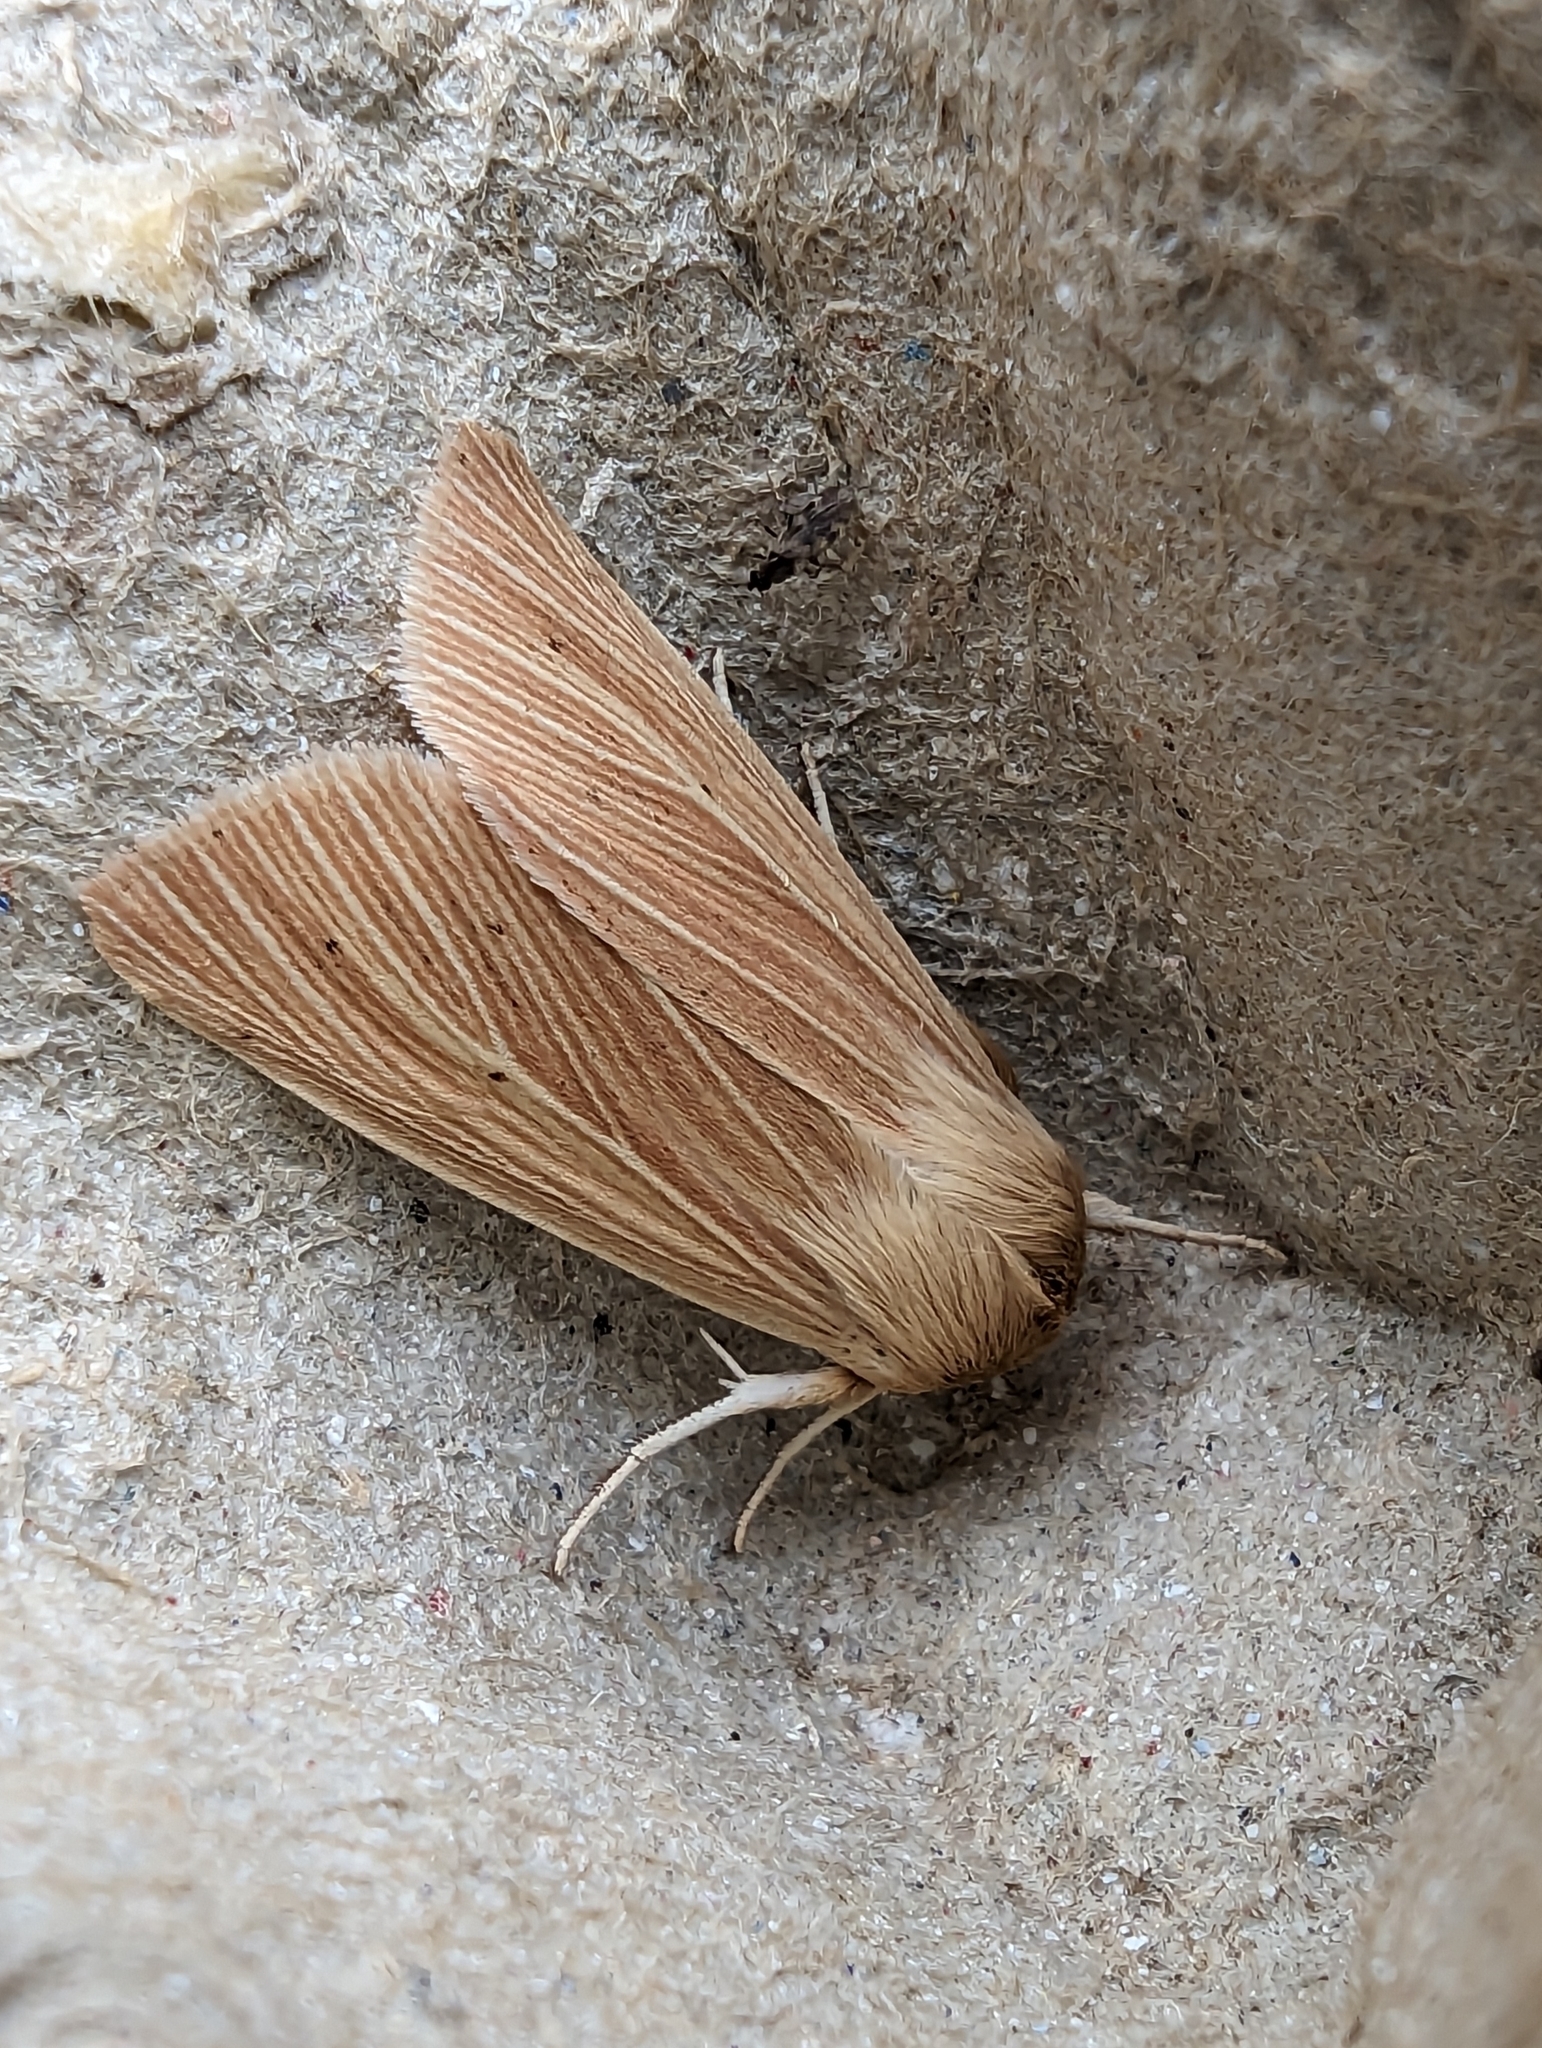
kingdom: Animalia
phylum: Arthropoda
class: Insecta
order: Lepidoptera
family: Noctuidae
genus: Mythimna
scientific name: Mythimna pallens
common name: Common wainscot
